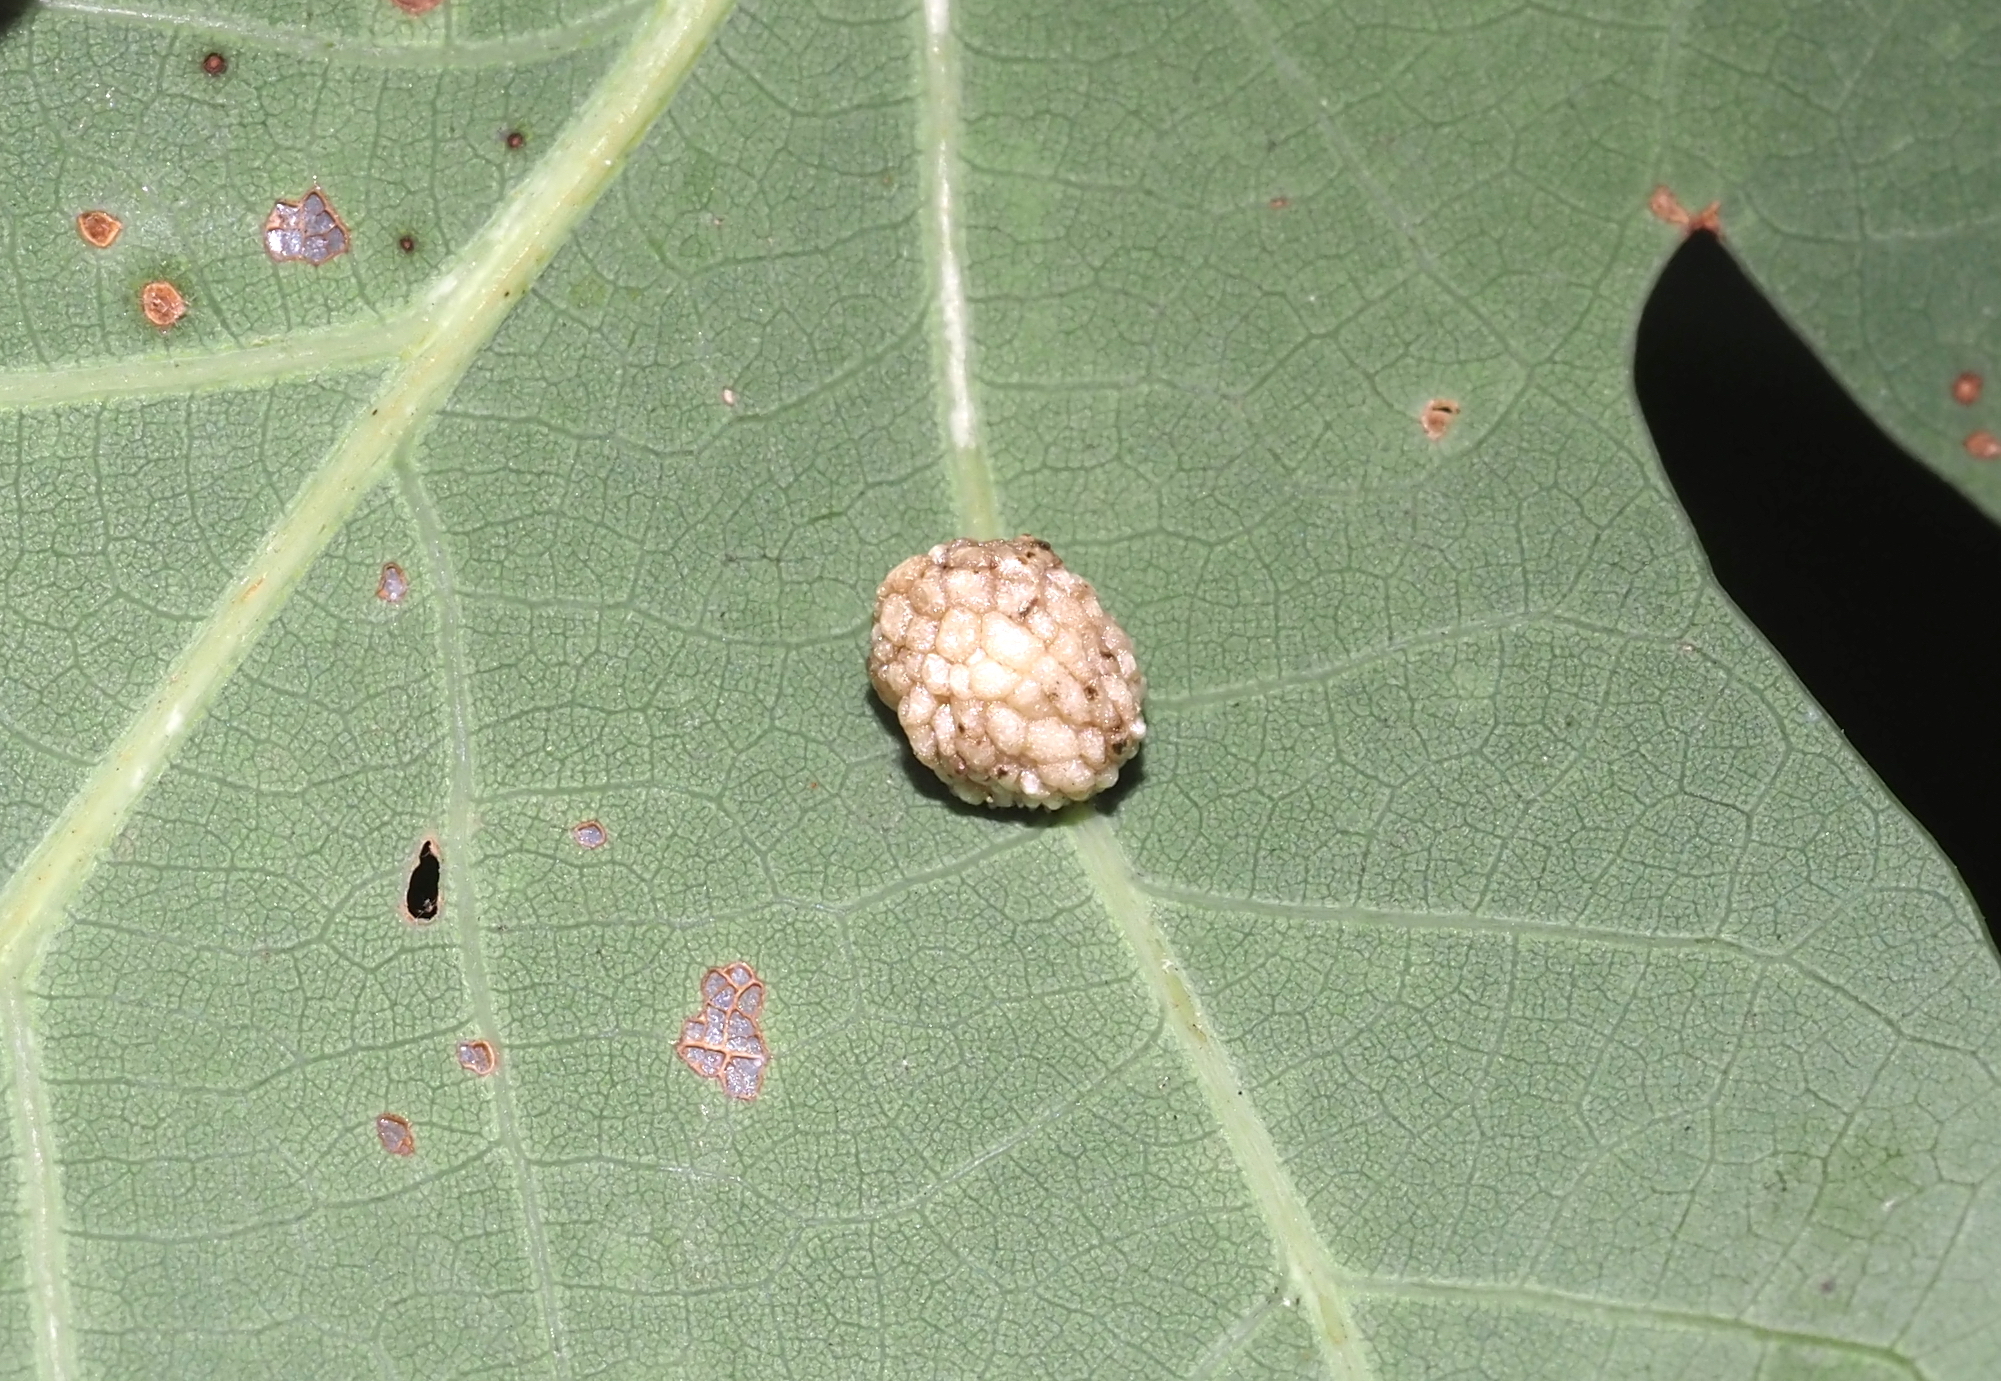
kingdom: Animalia
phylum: Arthropoda
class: Insecta
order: Hymenoptera
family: Cynipidae
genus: Acraspis
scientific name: Acraspis
